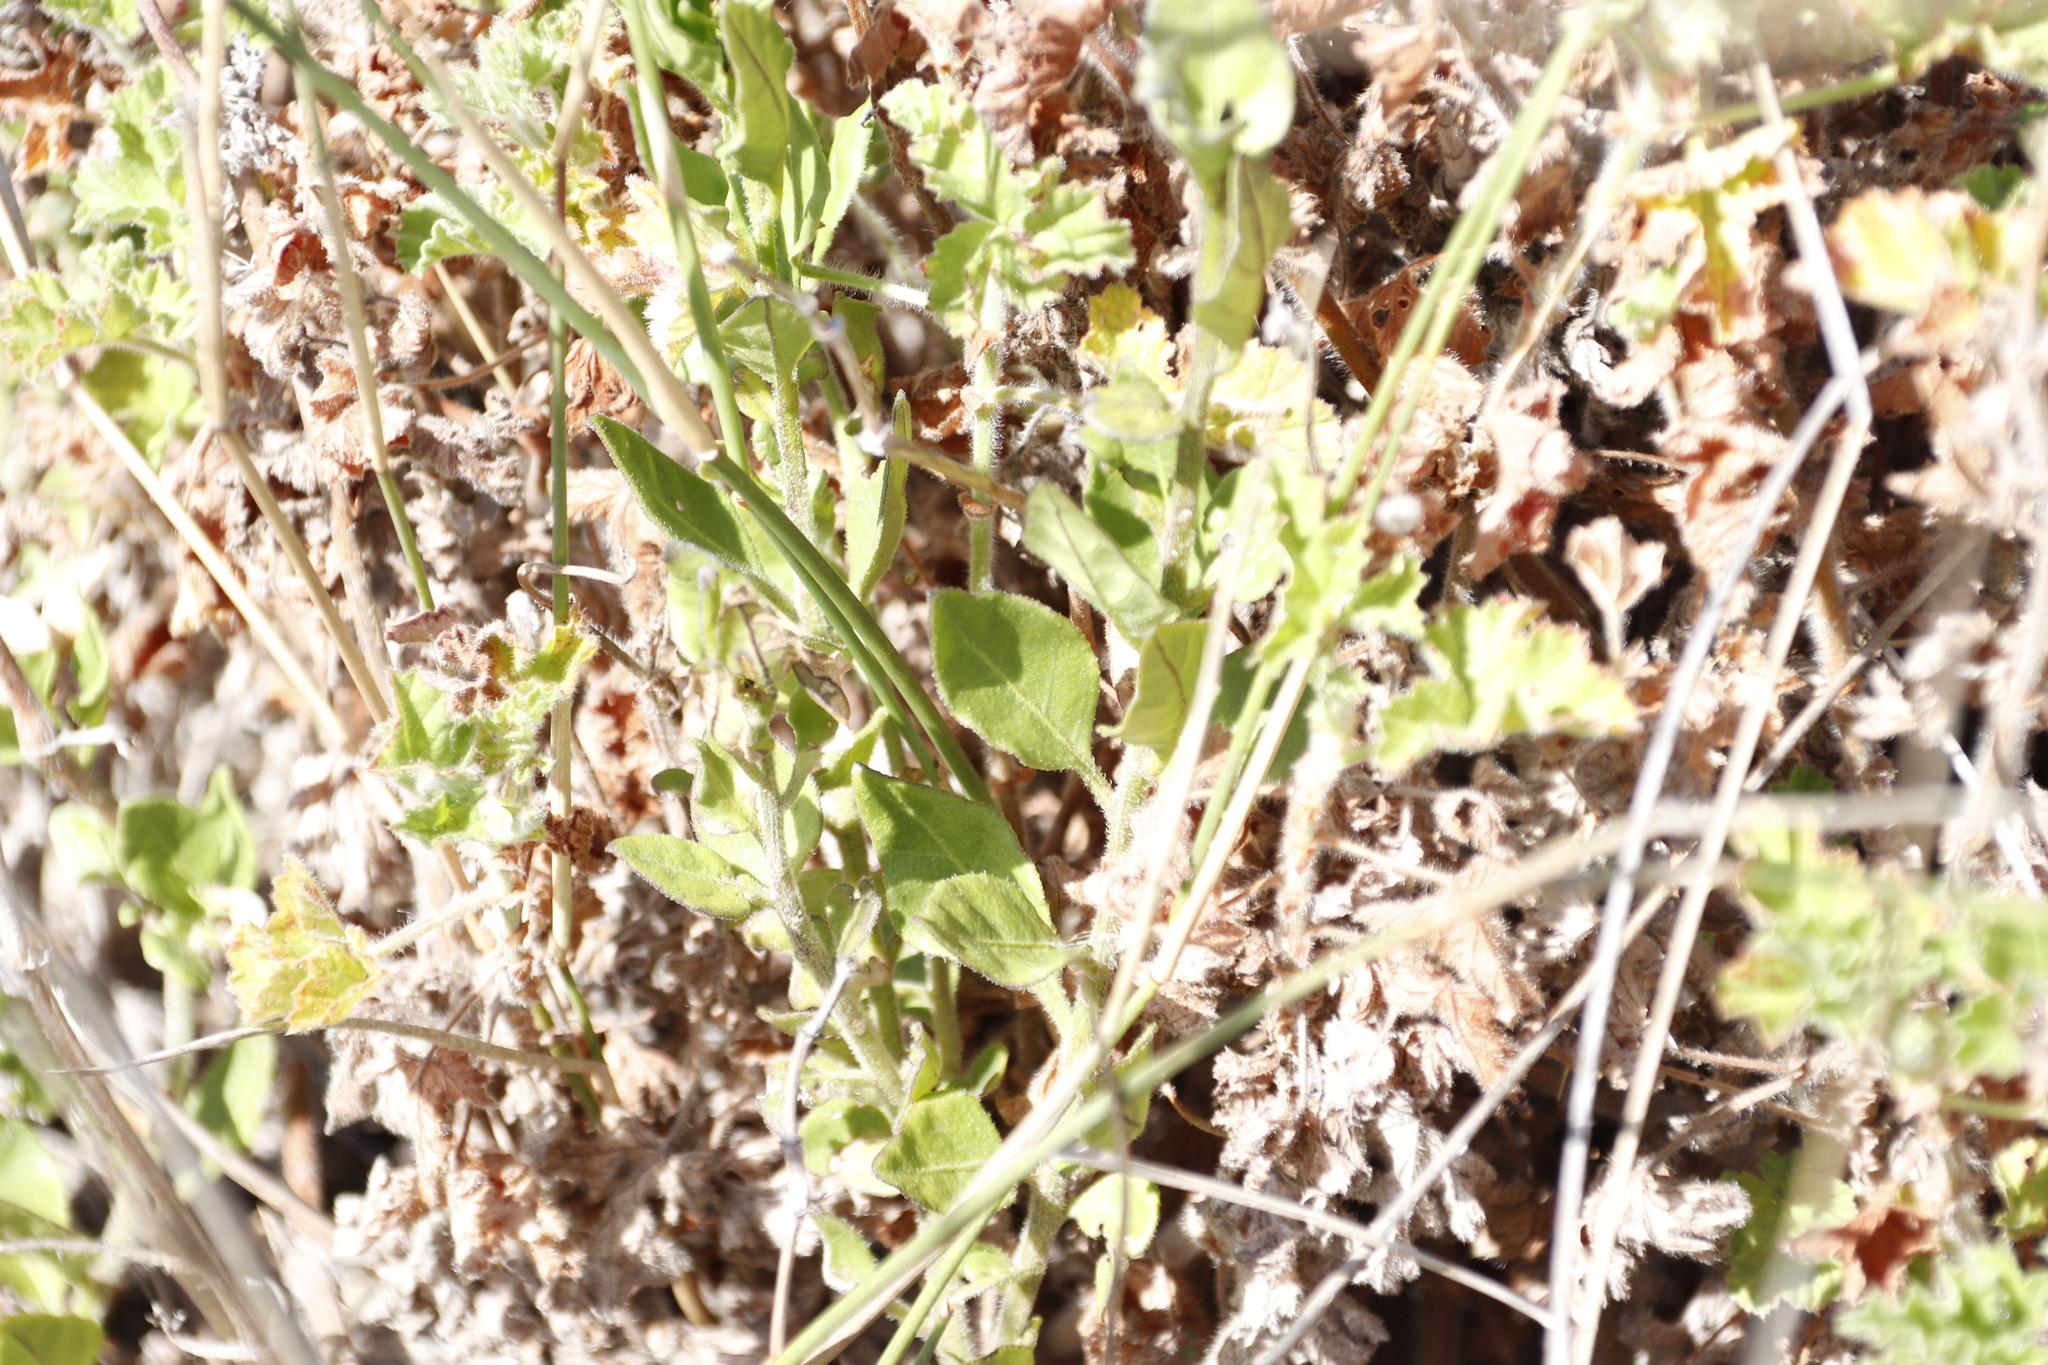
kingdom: Plantae
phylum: Tracheophyta
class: Magnoliopsida
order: Geraniales
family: Geraniaceae
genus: Pelargonium
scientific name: Pelargonium capitatum
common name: Rose scented geranium
